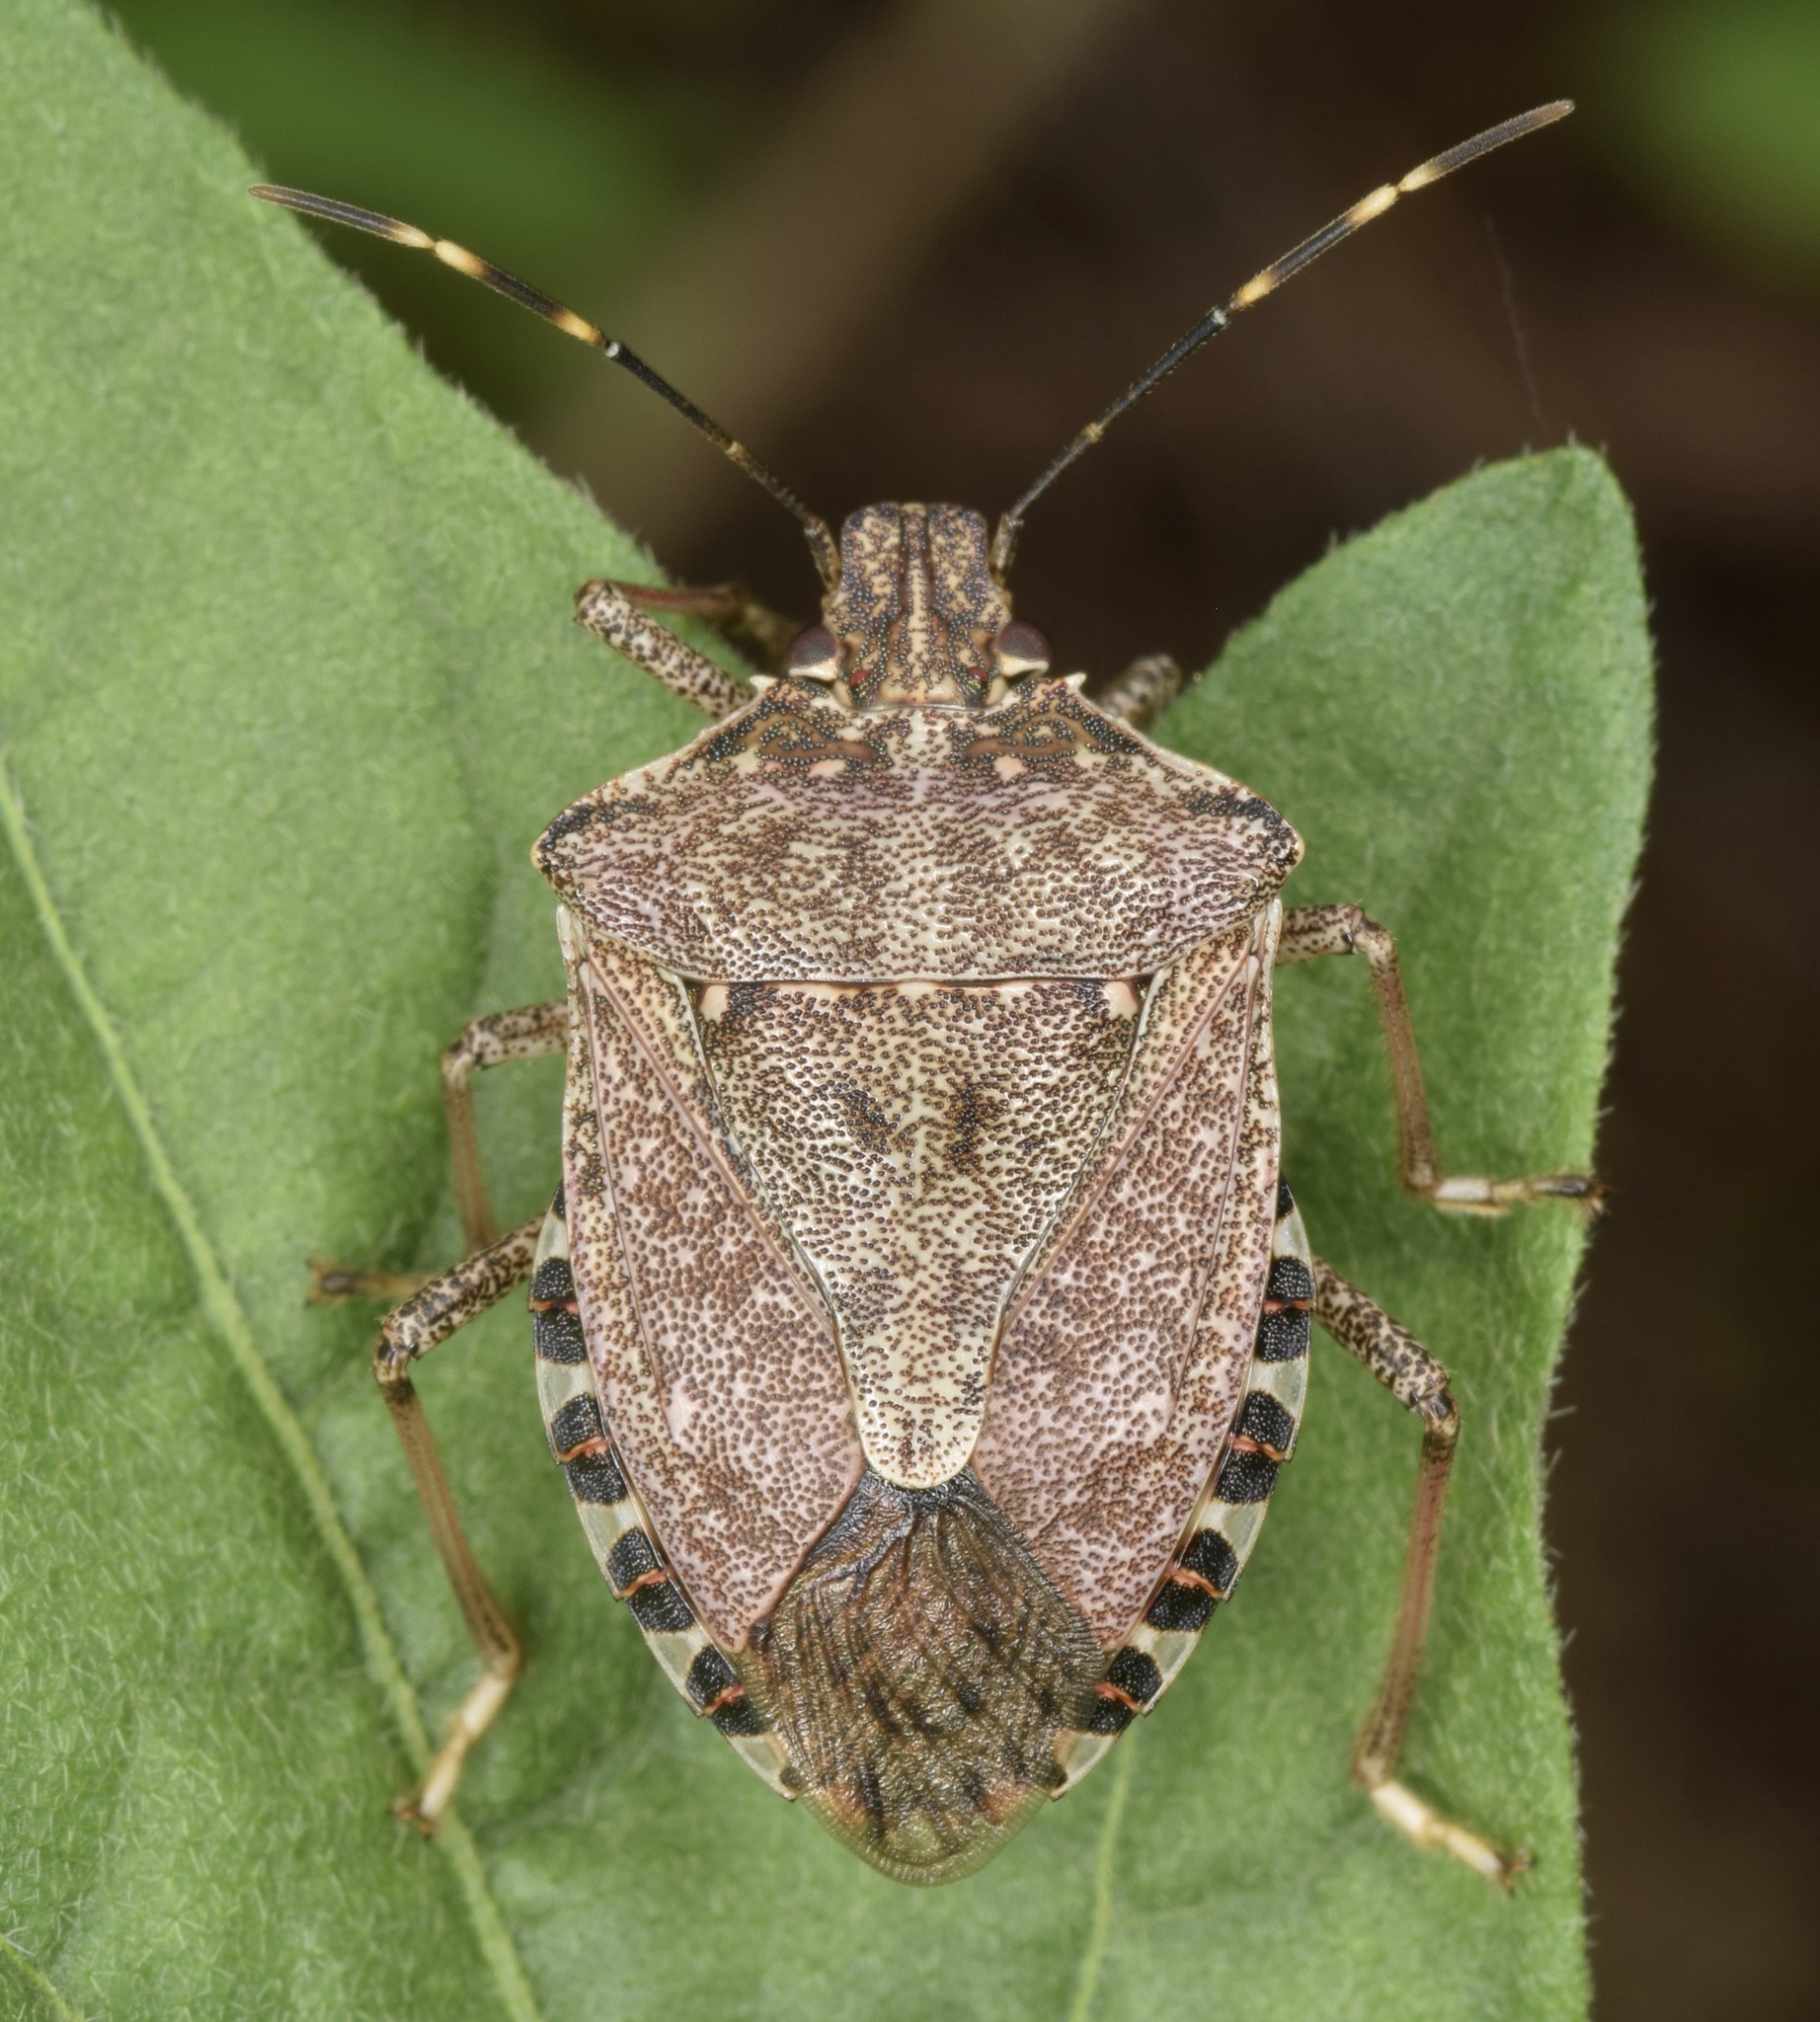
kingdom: Animalia
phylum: Arthropoda
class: Insecta
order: Hemiptera
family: Pentatomidae
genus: Halyomorpha
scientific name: Halyomorpha halys
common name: Brown marmorated stink bug
